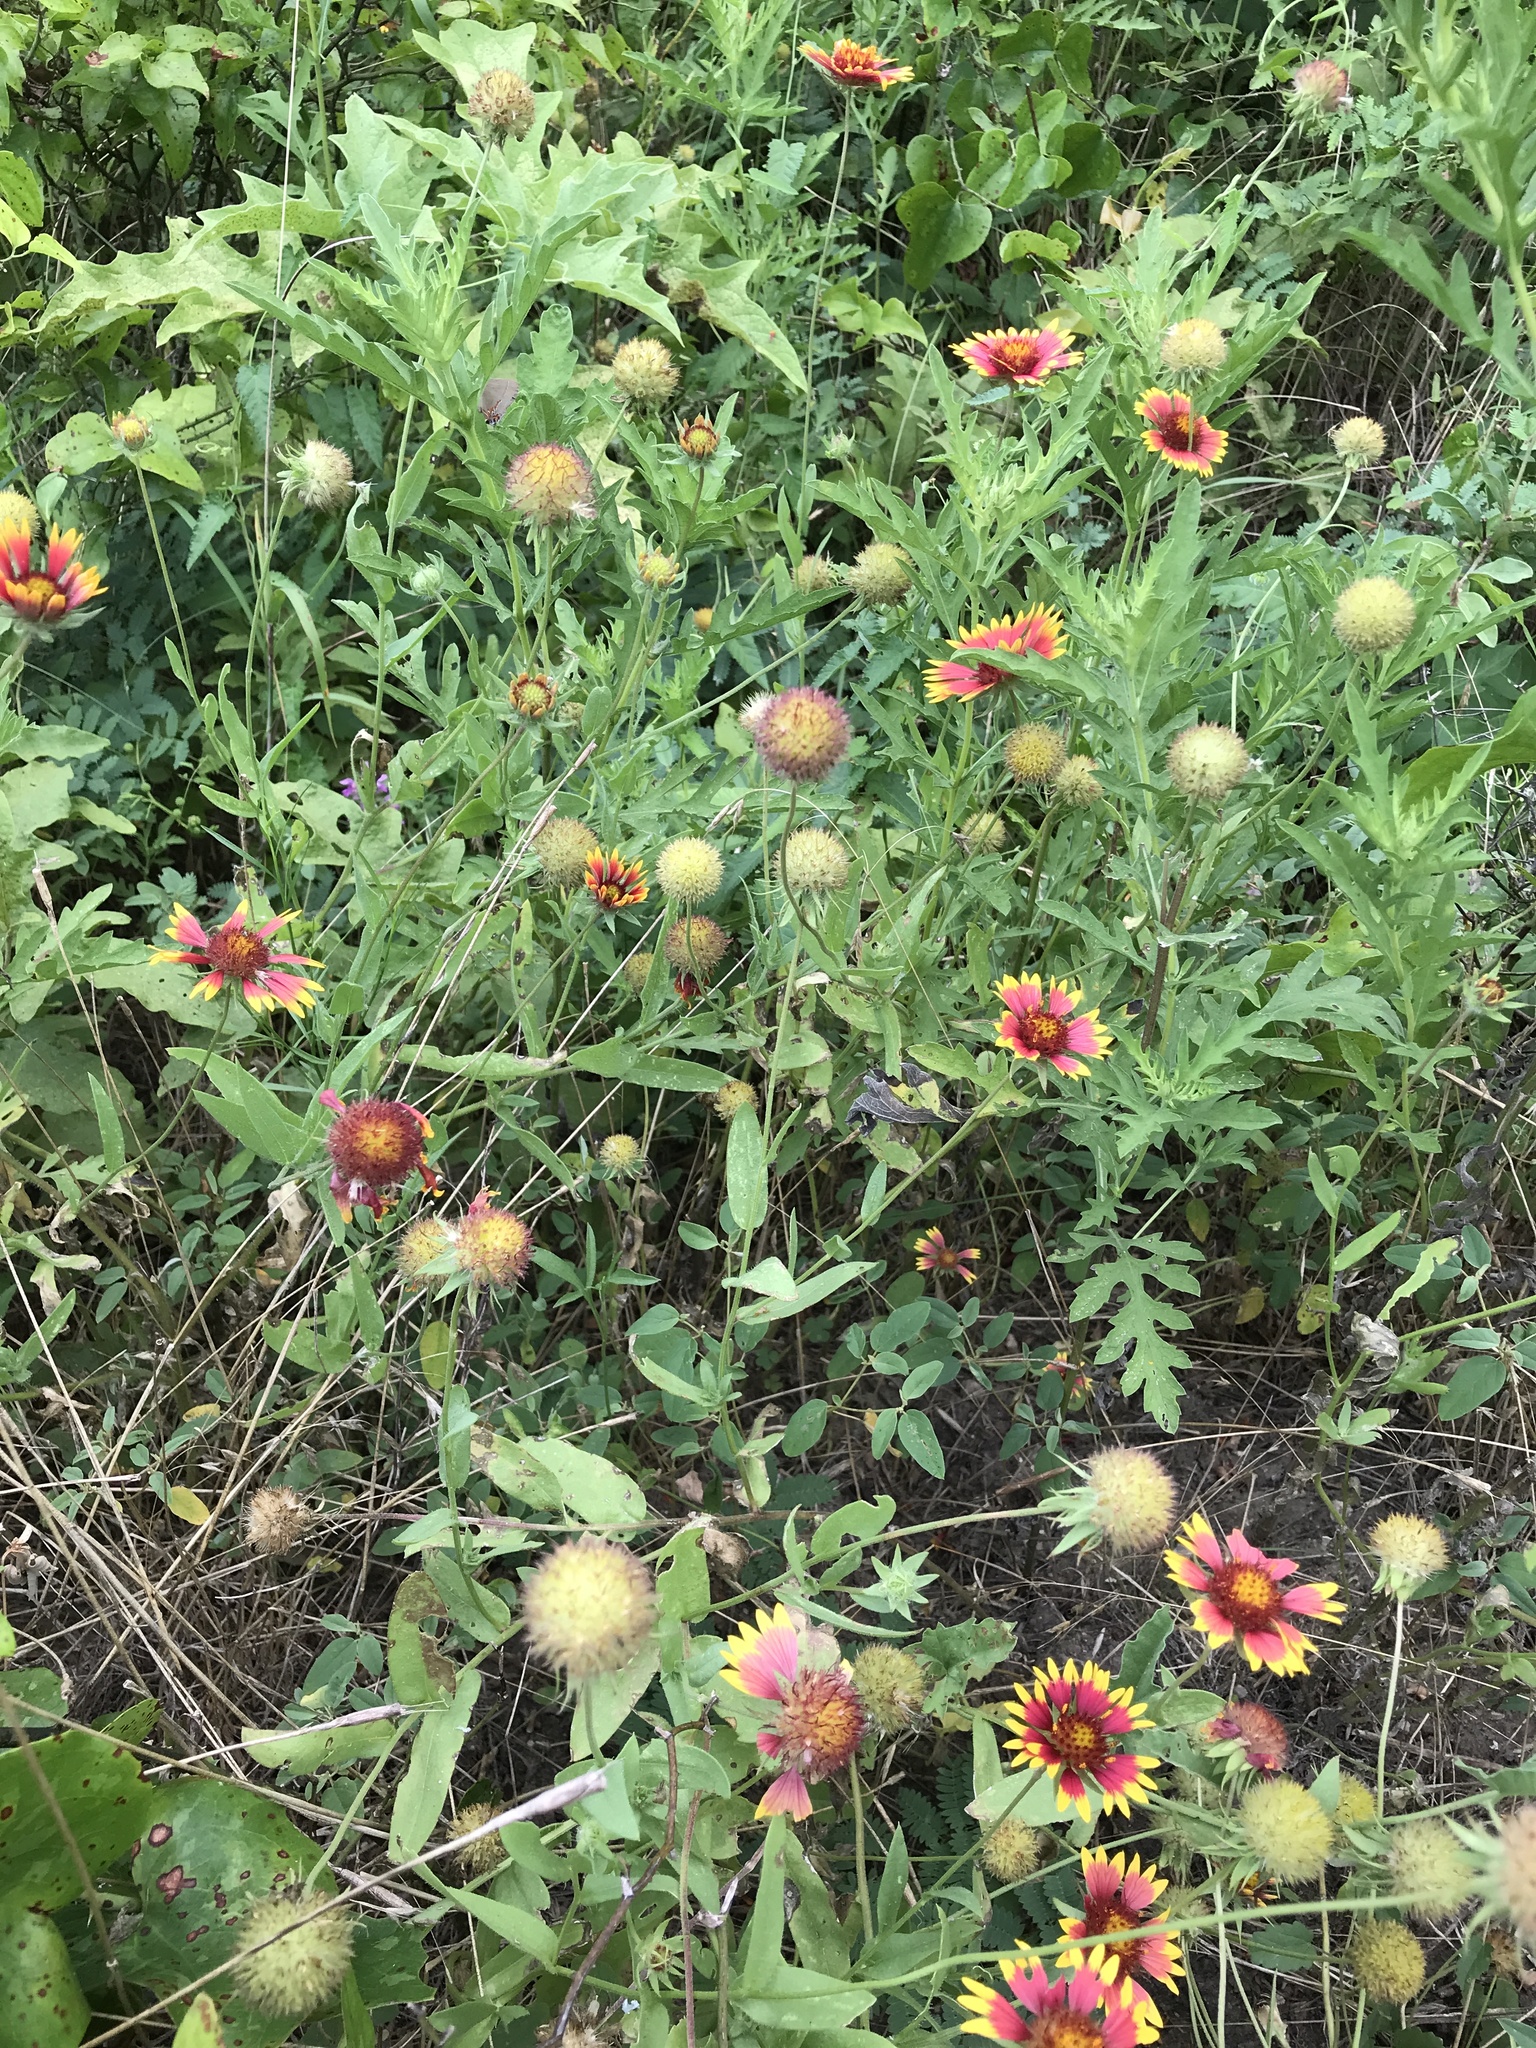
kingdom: Plantae
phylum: Tracheophyta
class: Magnoliopsida
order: Asterales
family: Asteraceae
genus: Gaillardia
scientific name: Gaillardia pulchella
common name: Firewheel
